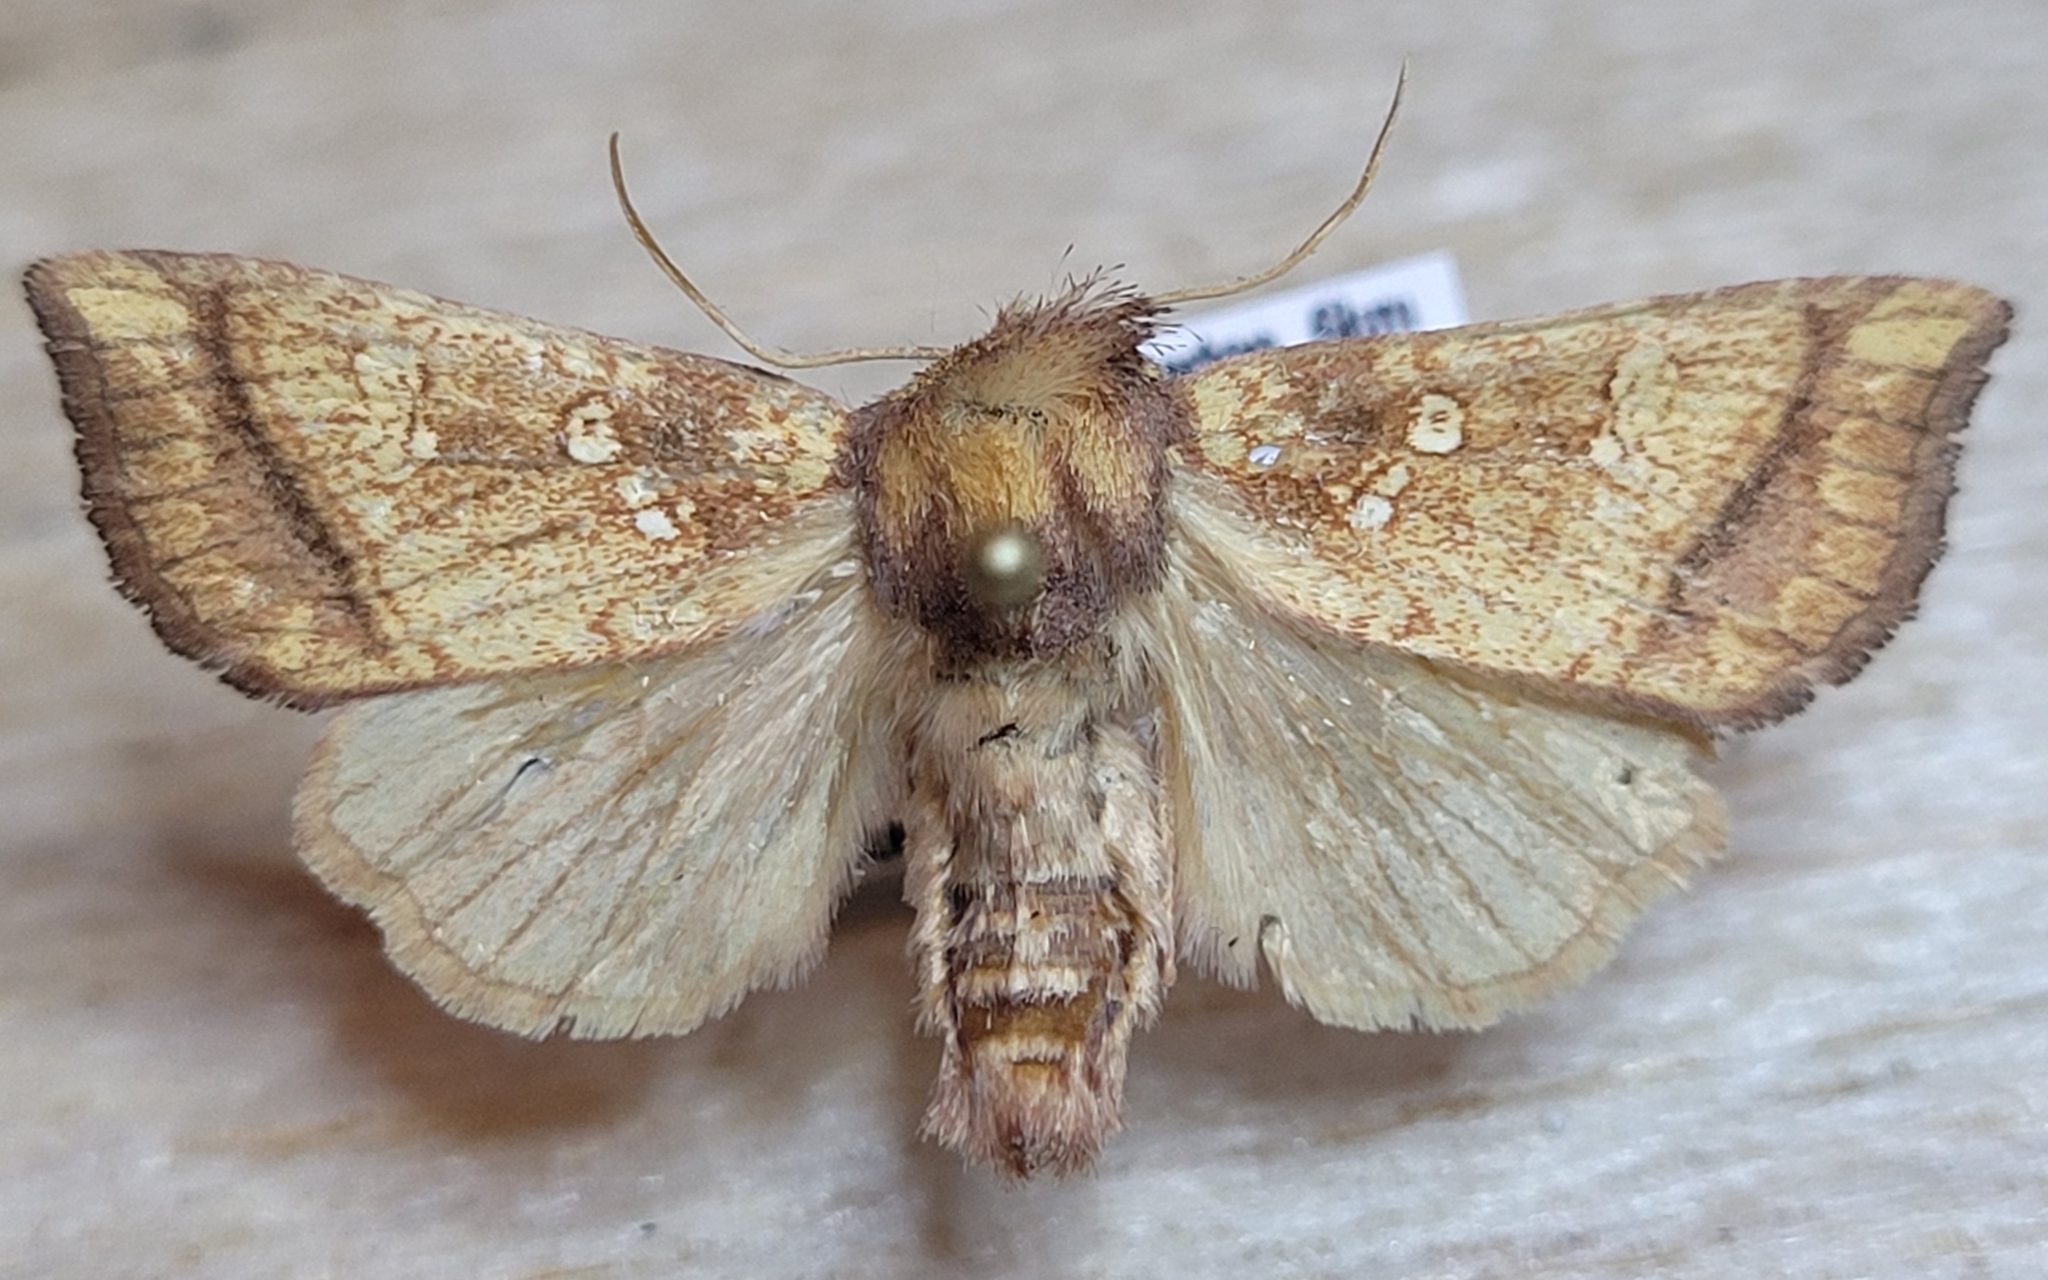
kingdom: Animalia
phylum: Arthropoda
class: Insecta
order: Lepidoptera
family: Noctuidae
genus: Papaipema
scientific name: Papaipema harrisii
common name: Heracleum stem borer moth
